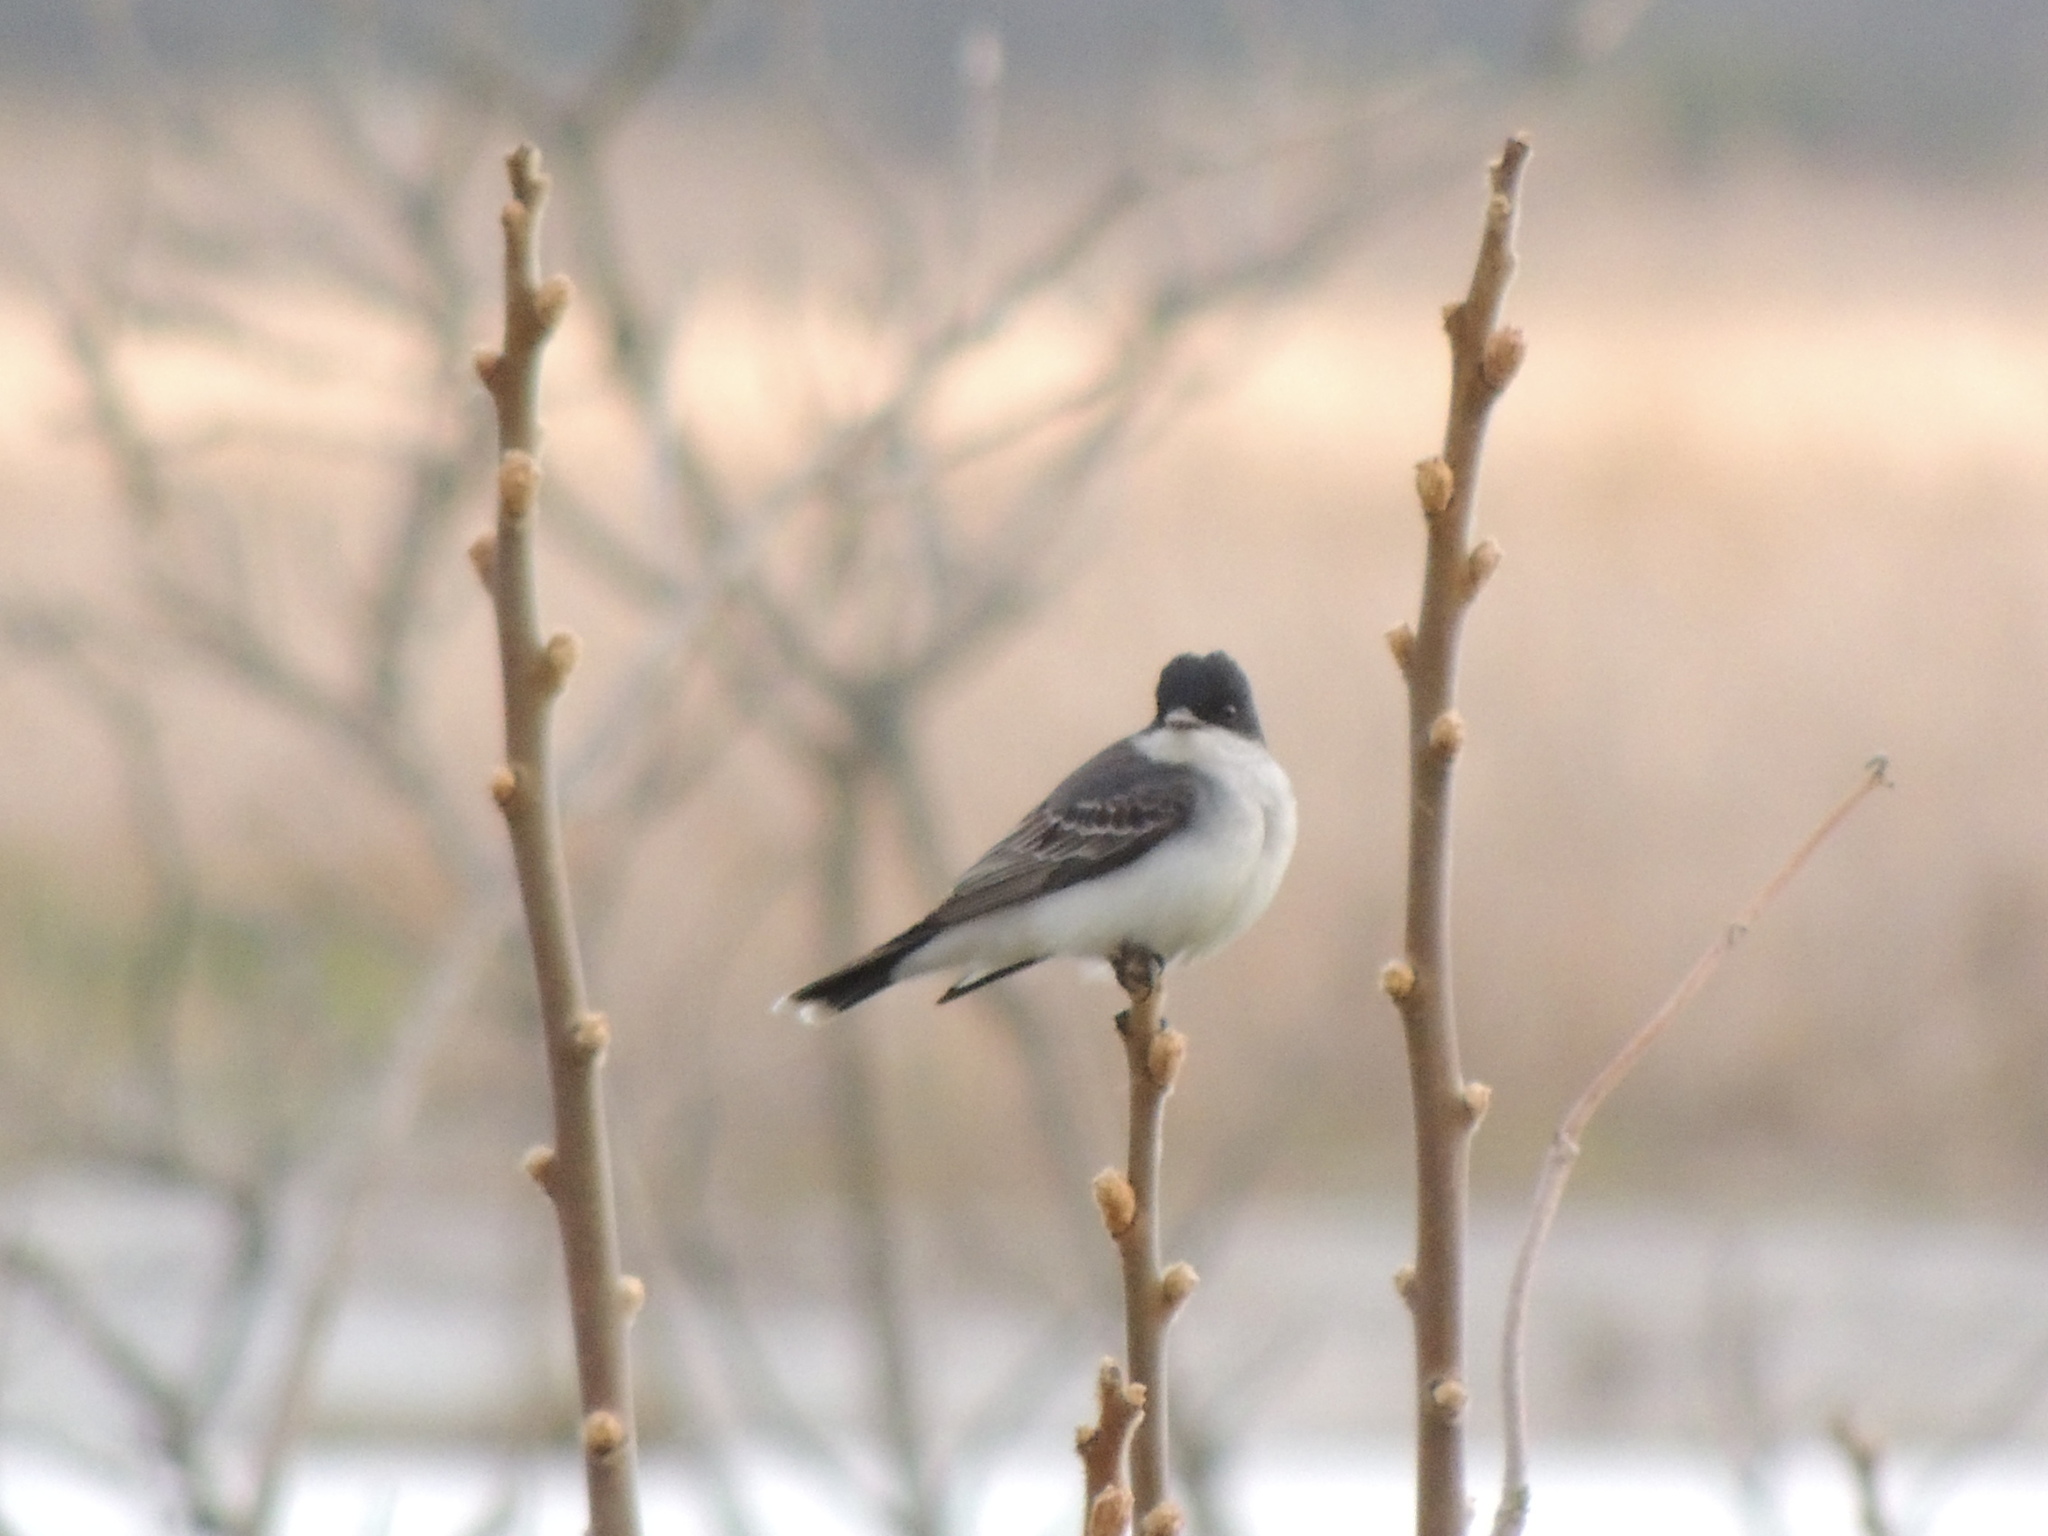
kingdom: Animalia
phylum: Chordata
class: Aves
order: Passeriformes
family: Tyrannidae
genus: Tyrannus
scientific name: Tyrannus tyrannus
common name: Eastern kingbird
